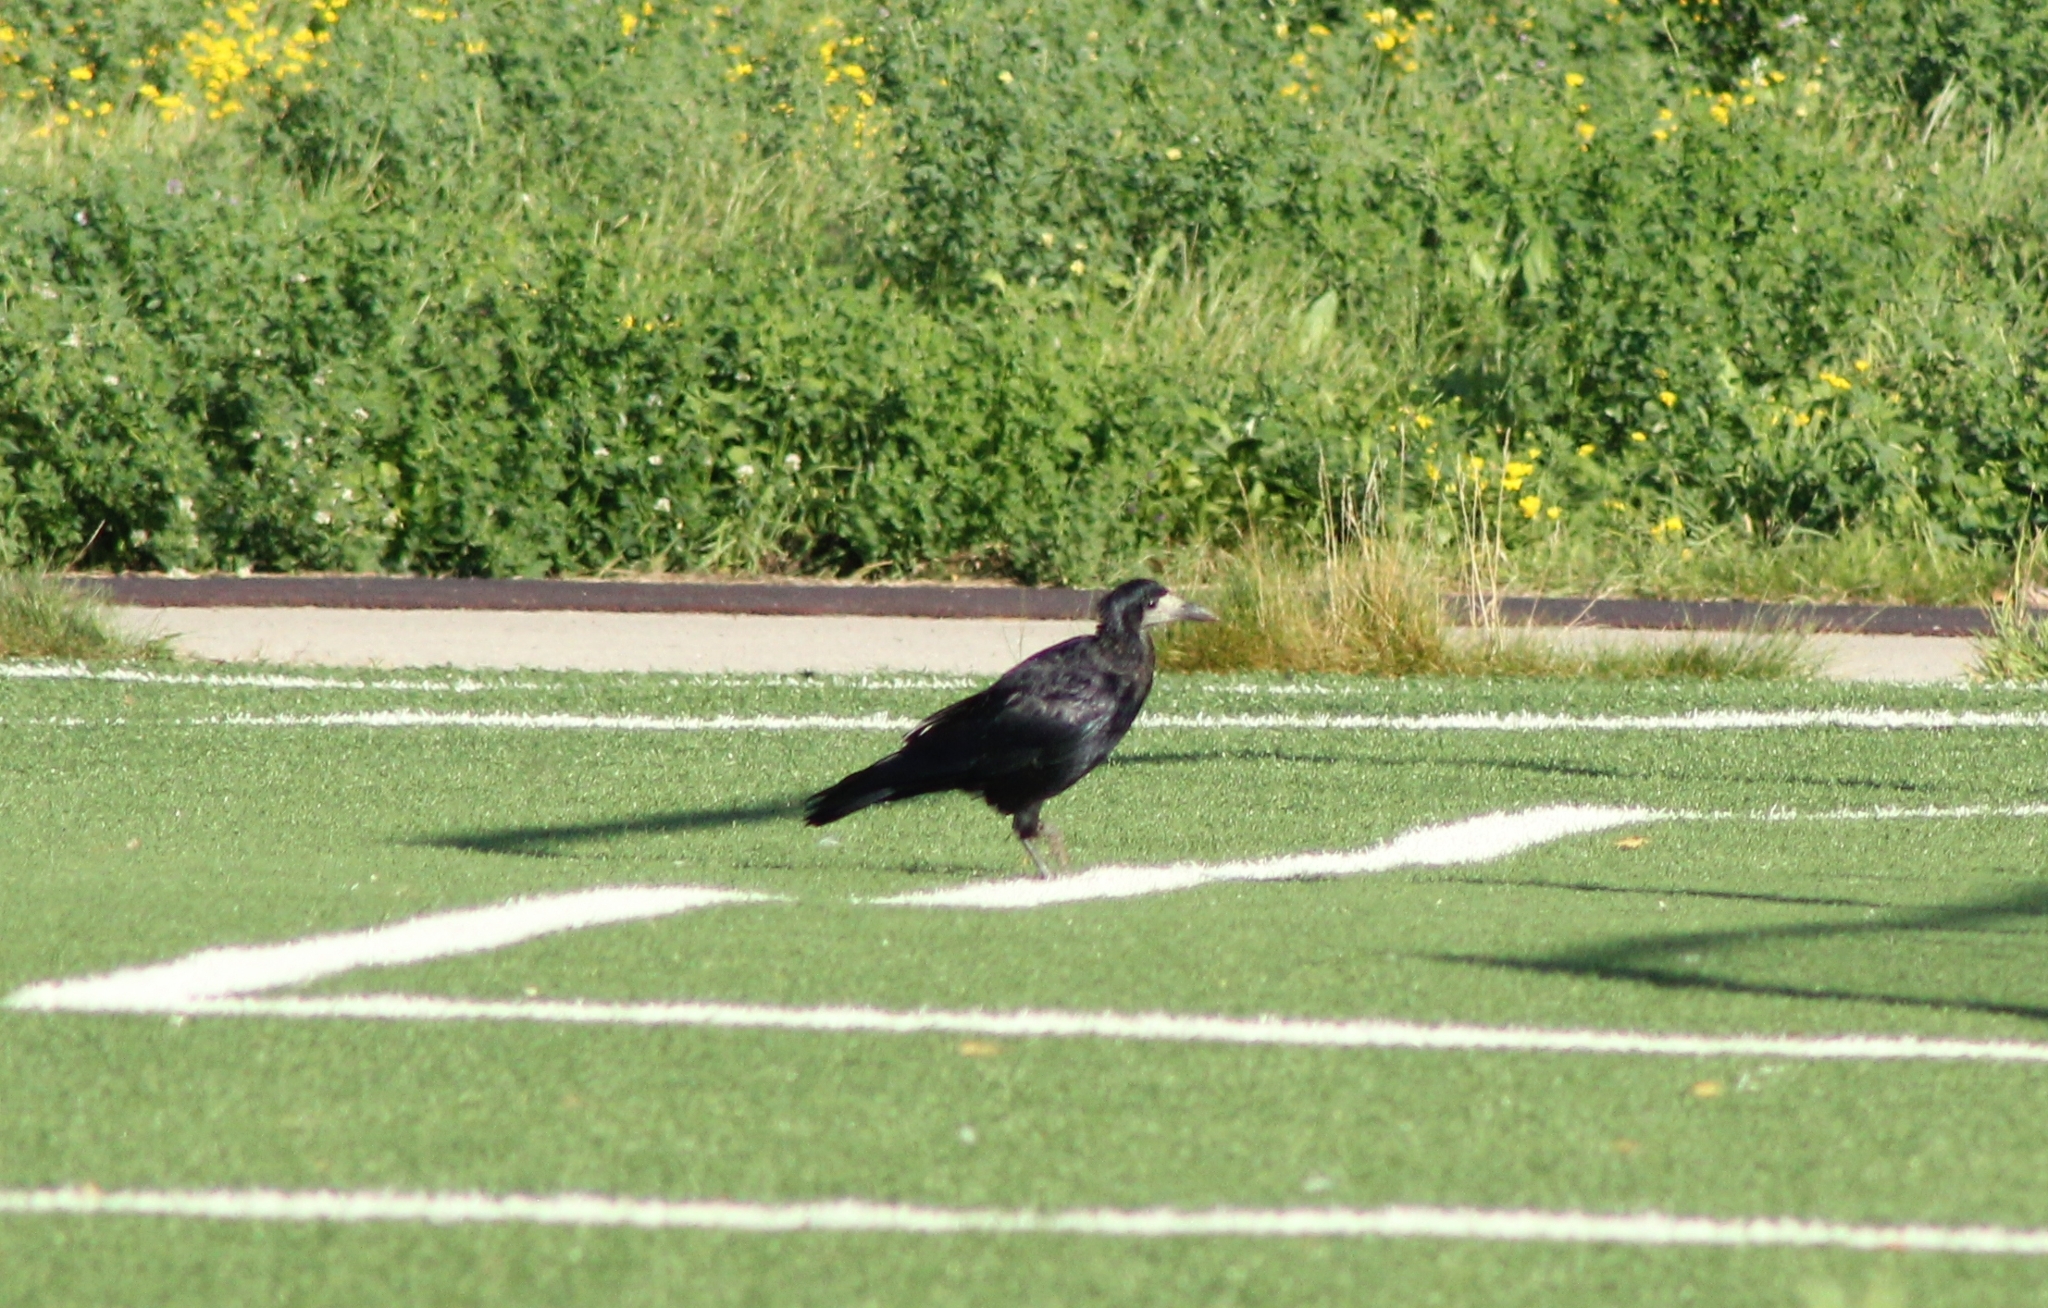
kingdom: Animalia
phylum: Chordata
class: Aves
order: Passeriformes
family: Corvidae
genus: Corvus
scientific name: Corvus frugilegus
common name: Rook
